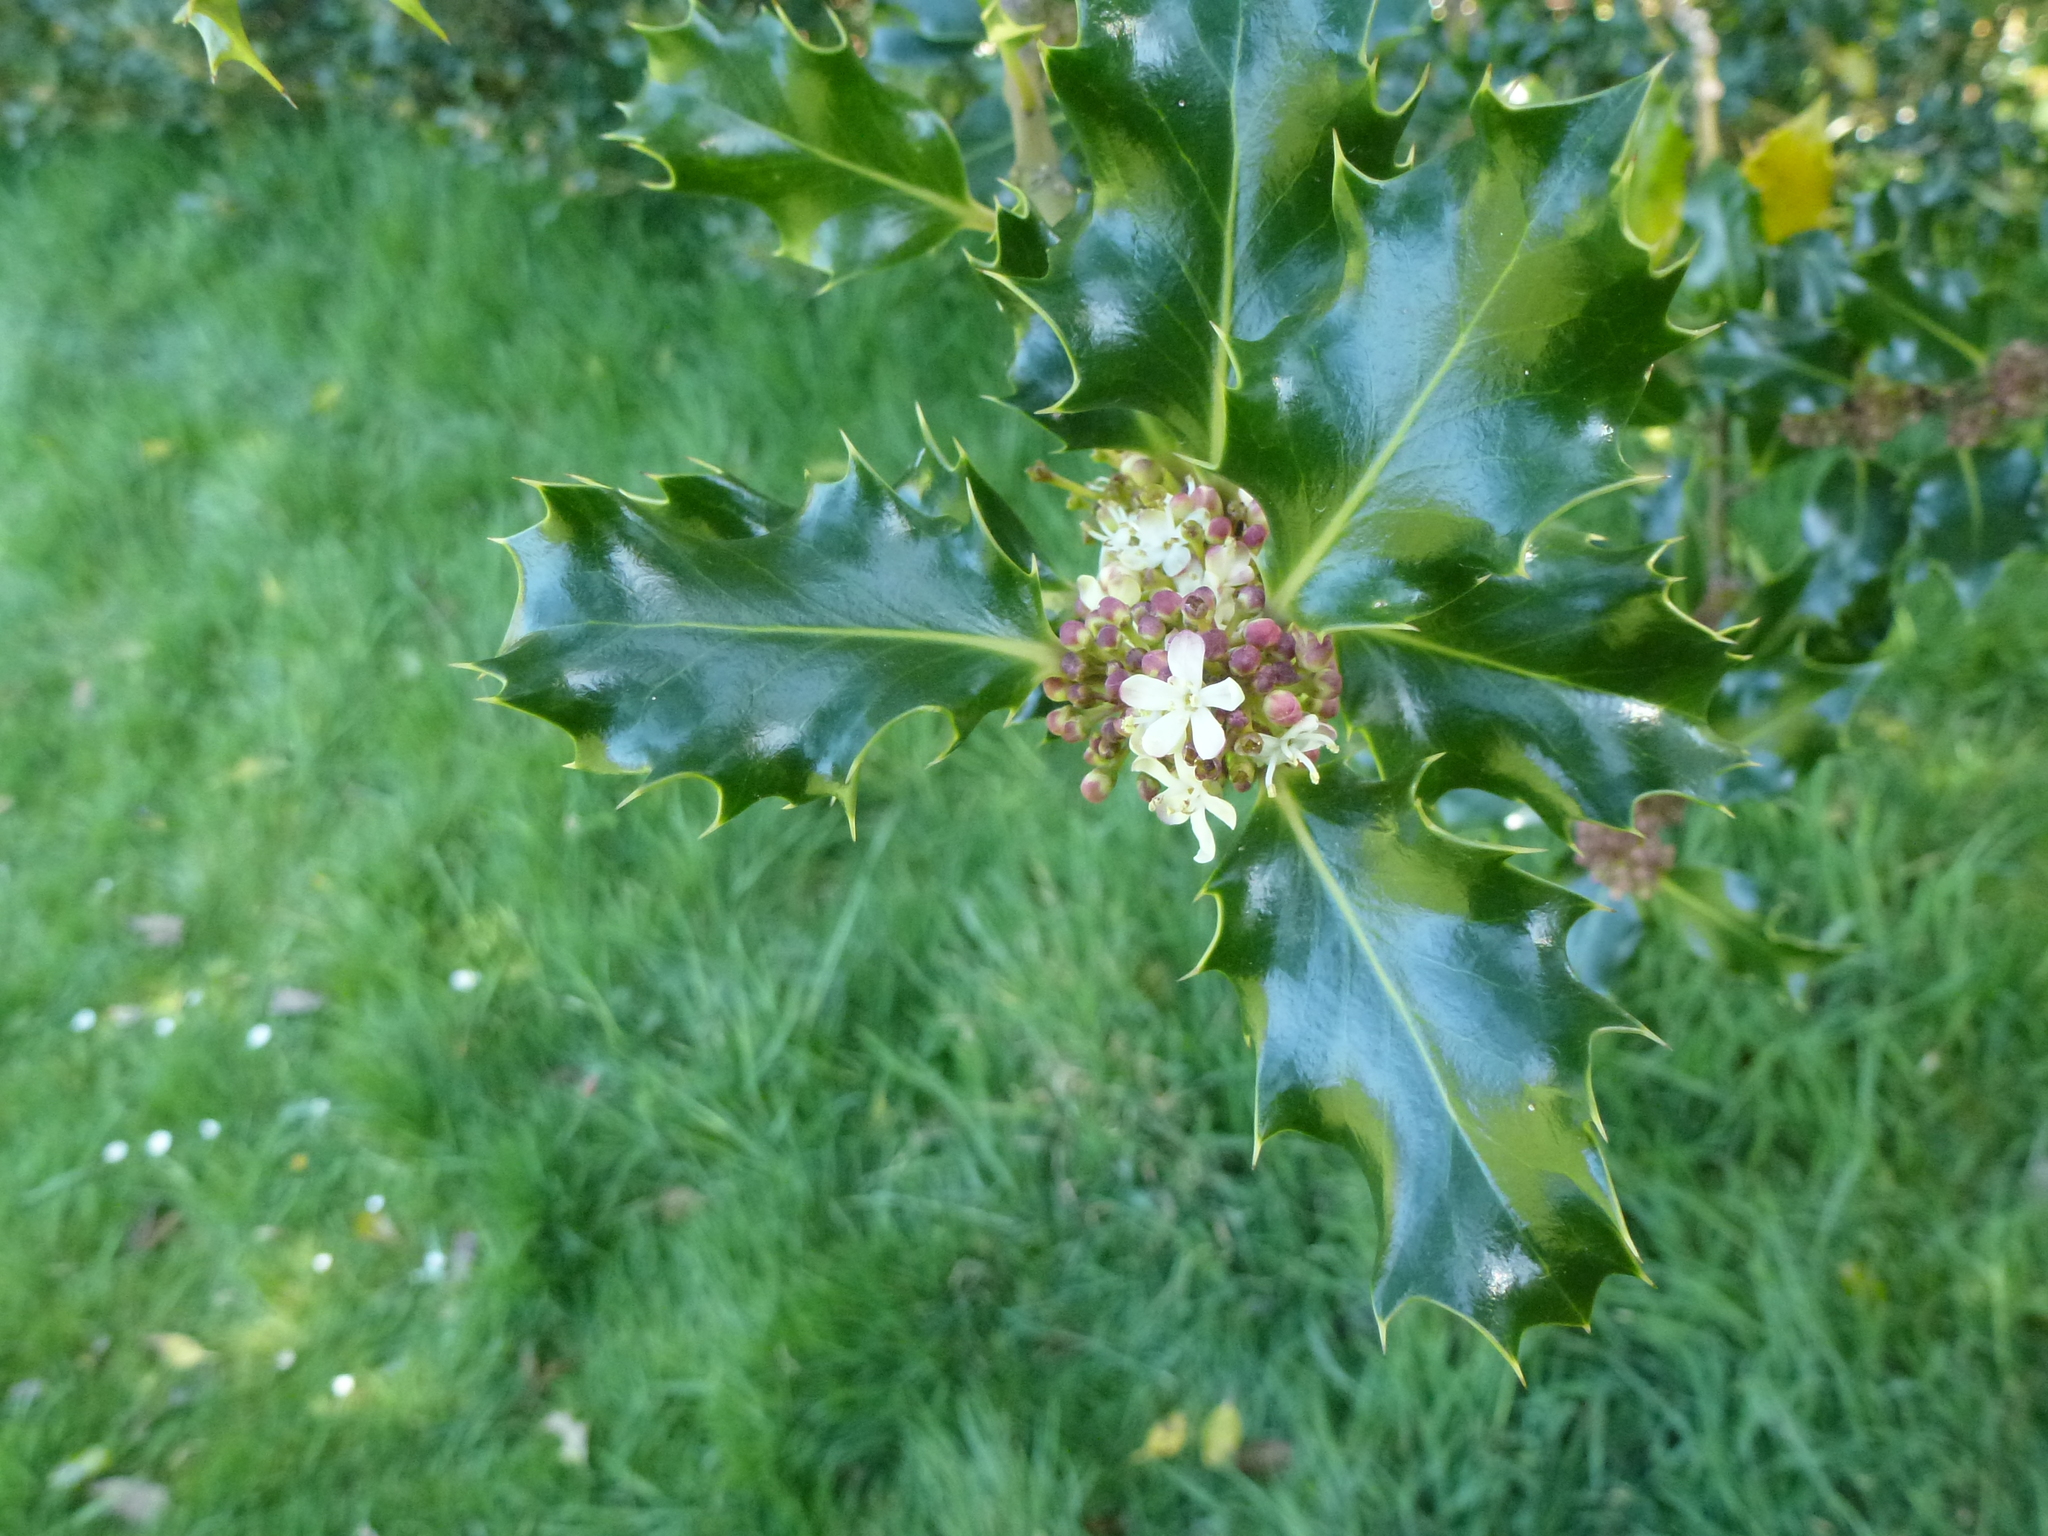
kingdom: Plantae
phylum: Tracheophyta
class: Magnoliopsida
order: Aquifoliales
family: Aquifoliaceae
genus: Ilex
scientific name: Ilex aquifolium
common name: English holly
